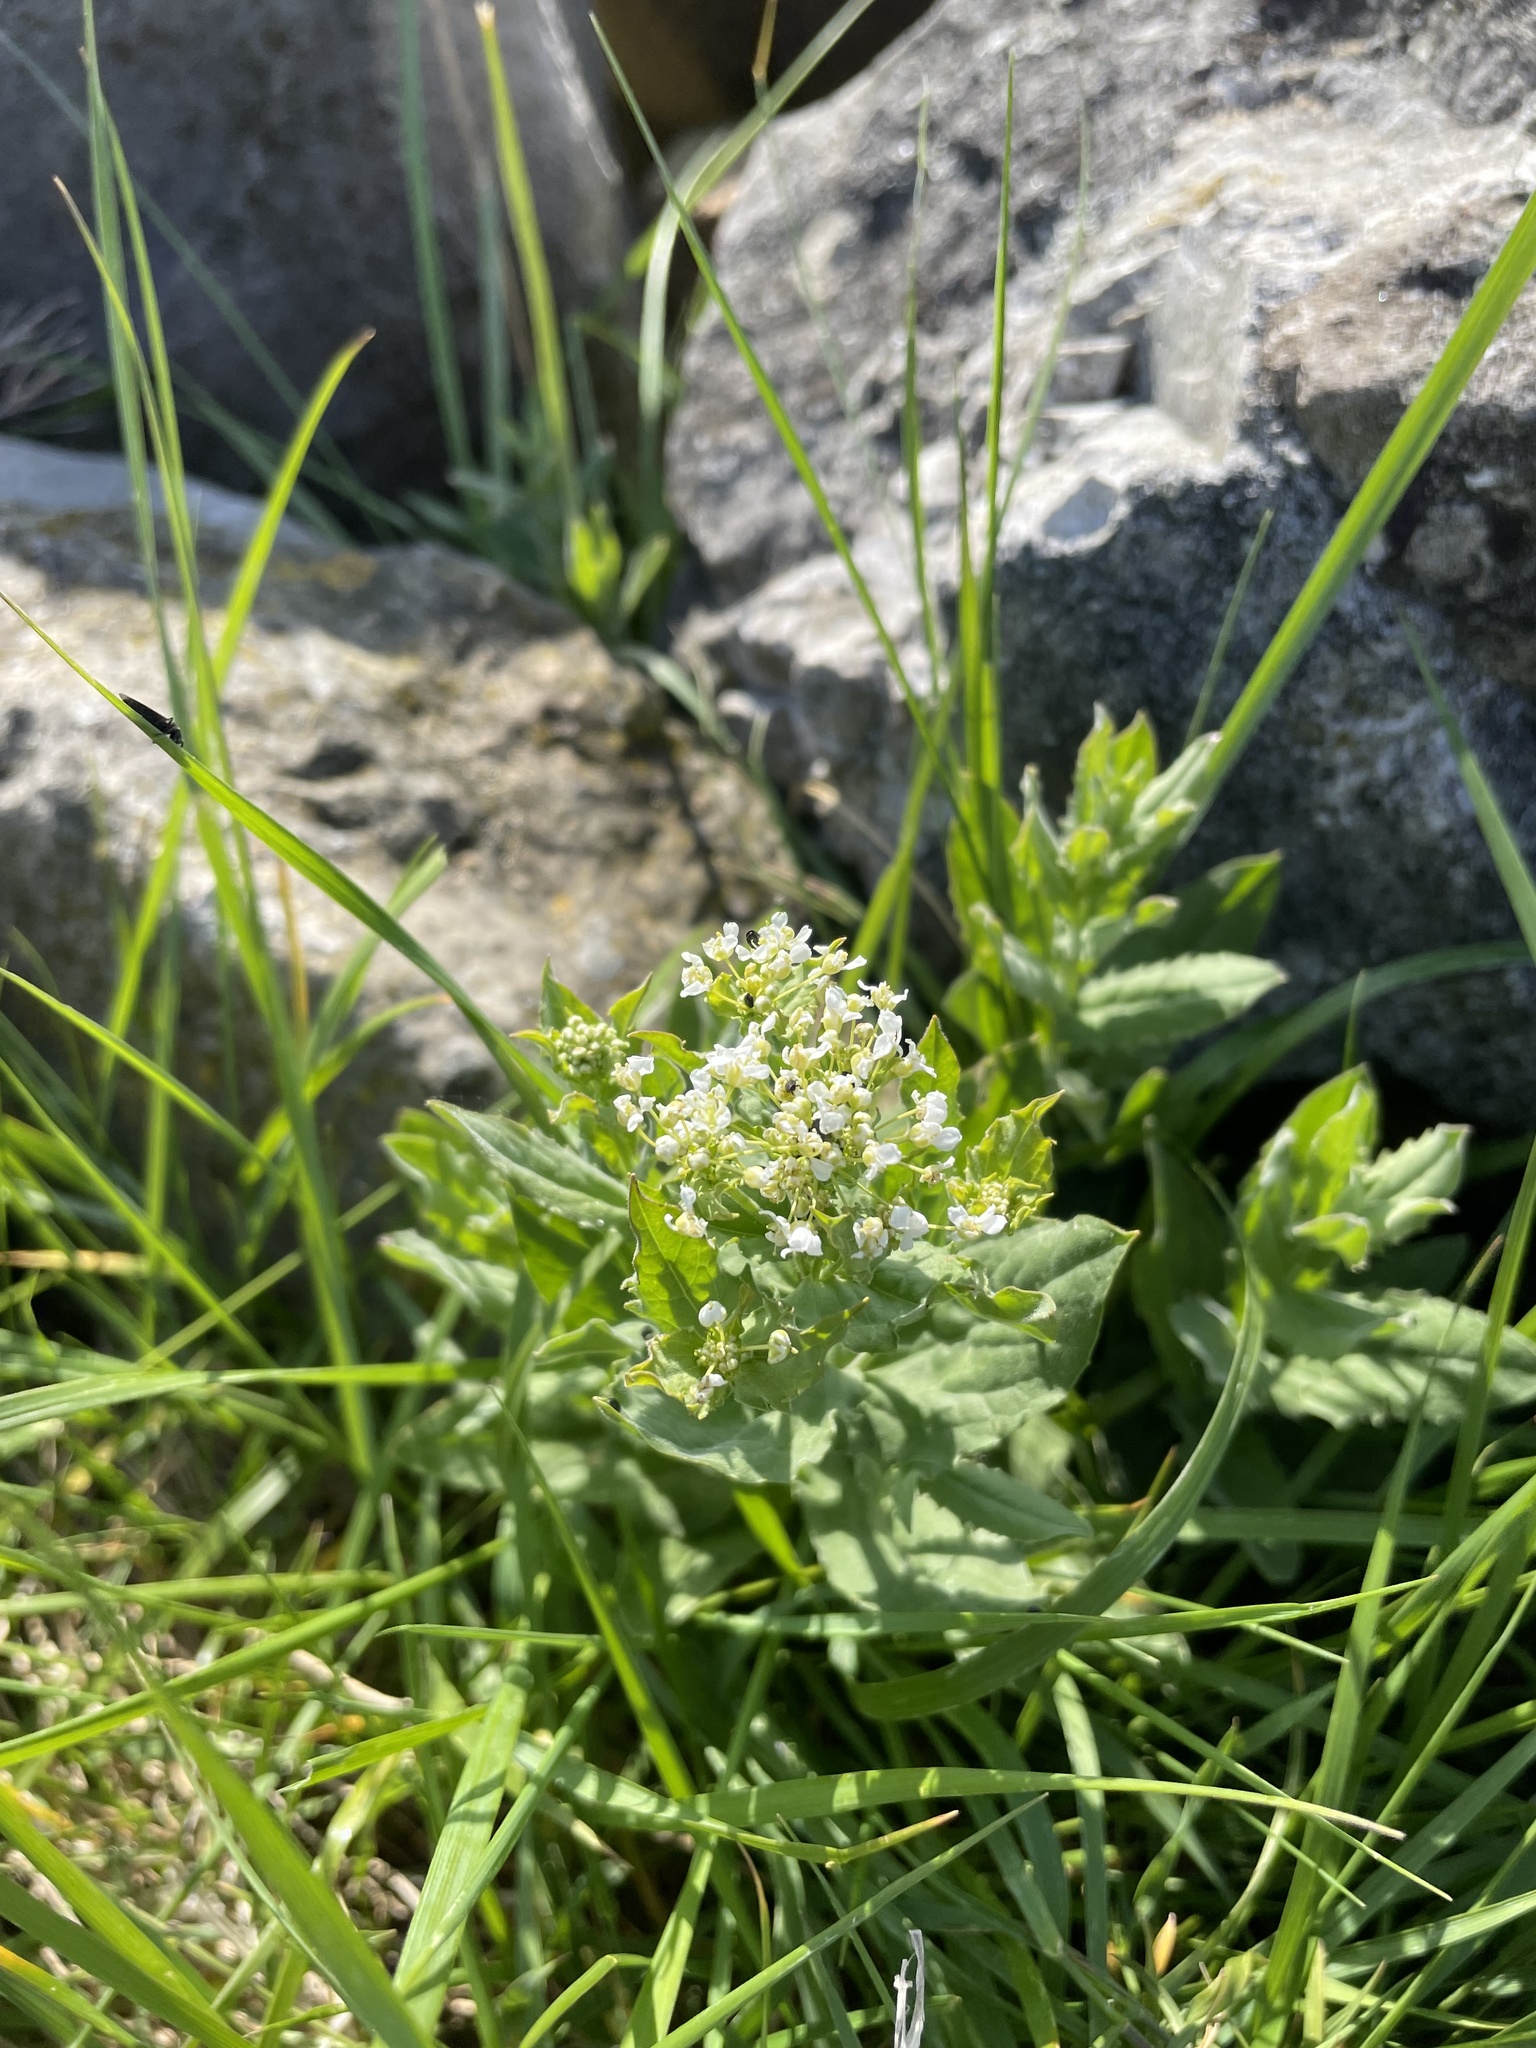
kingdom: Plantae
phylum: Tracheophyta
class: Magnoliopsida
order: Brassicales
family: Brassicaceae
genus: Lepidium
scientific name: Lepidium draba
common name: Hoary cress
